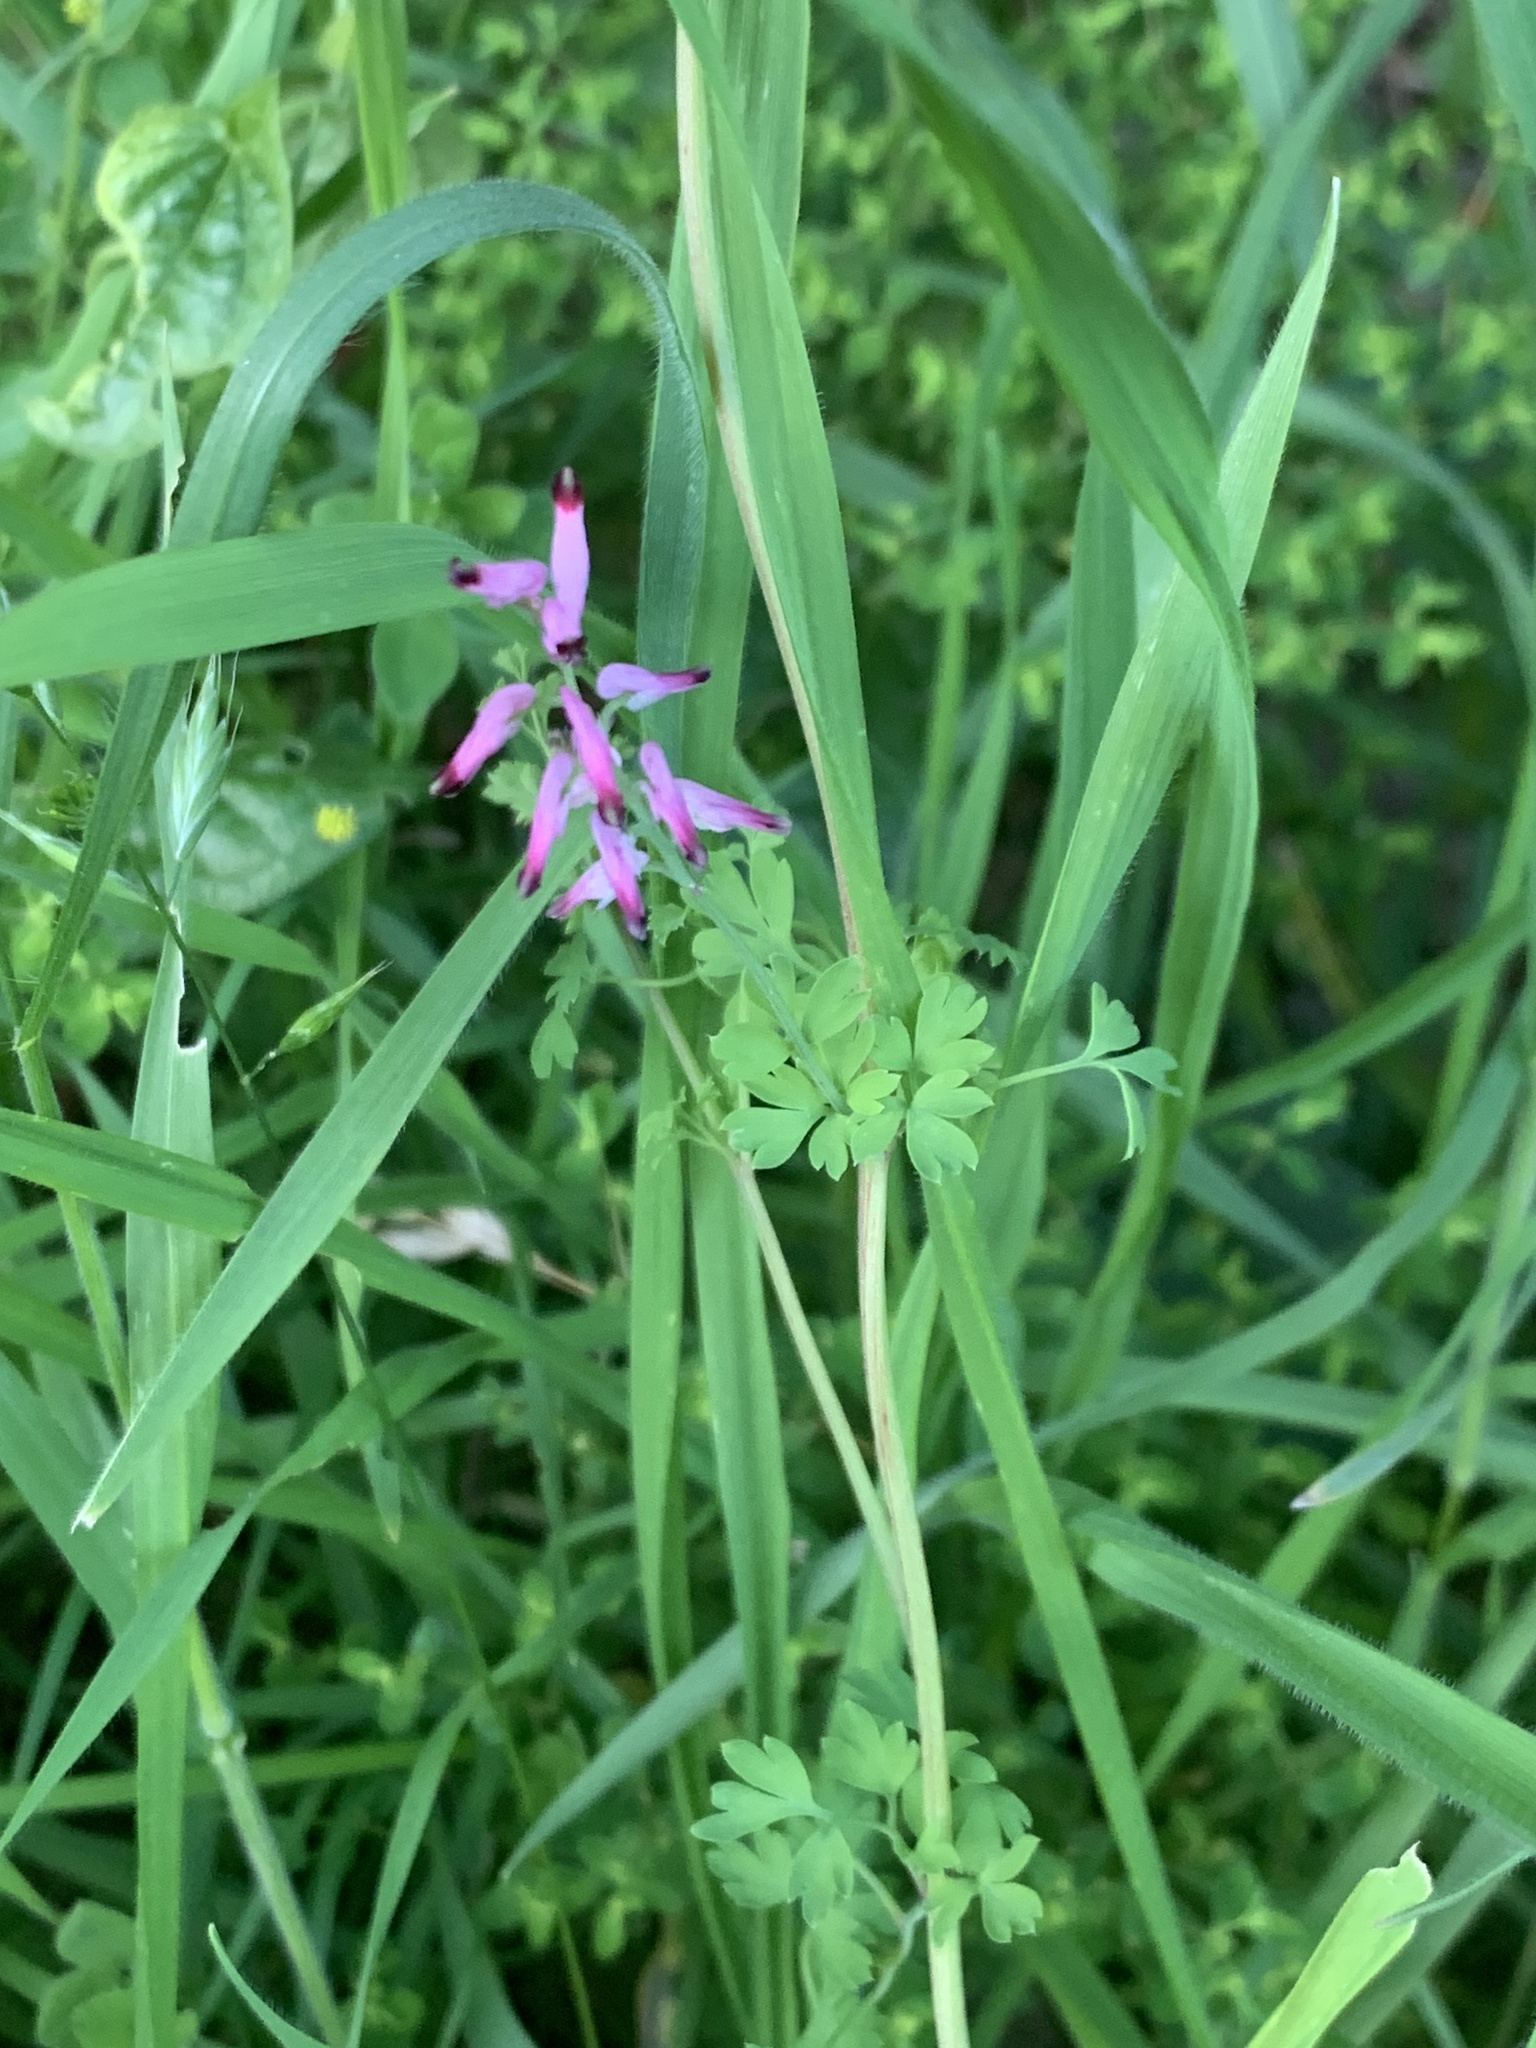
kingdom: Plantae
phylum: Tracheophyta
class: Magnoliopsida
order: Ranunculales
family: Papaveraceae
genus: Fumaria
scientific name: Fumaria muralis
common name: Common ramping-fumitory
